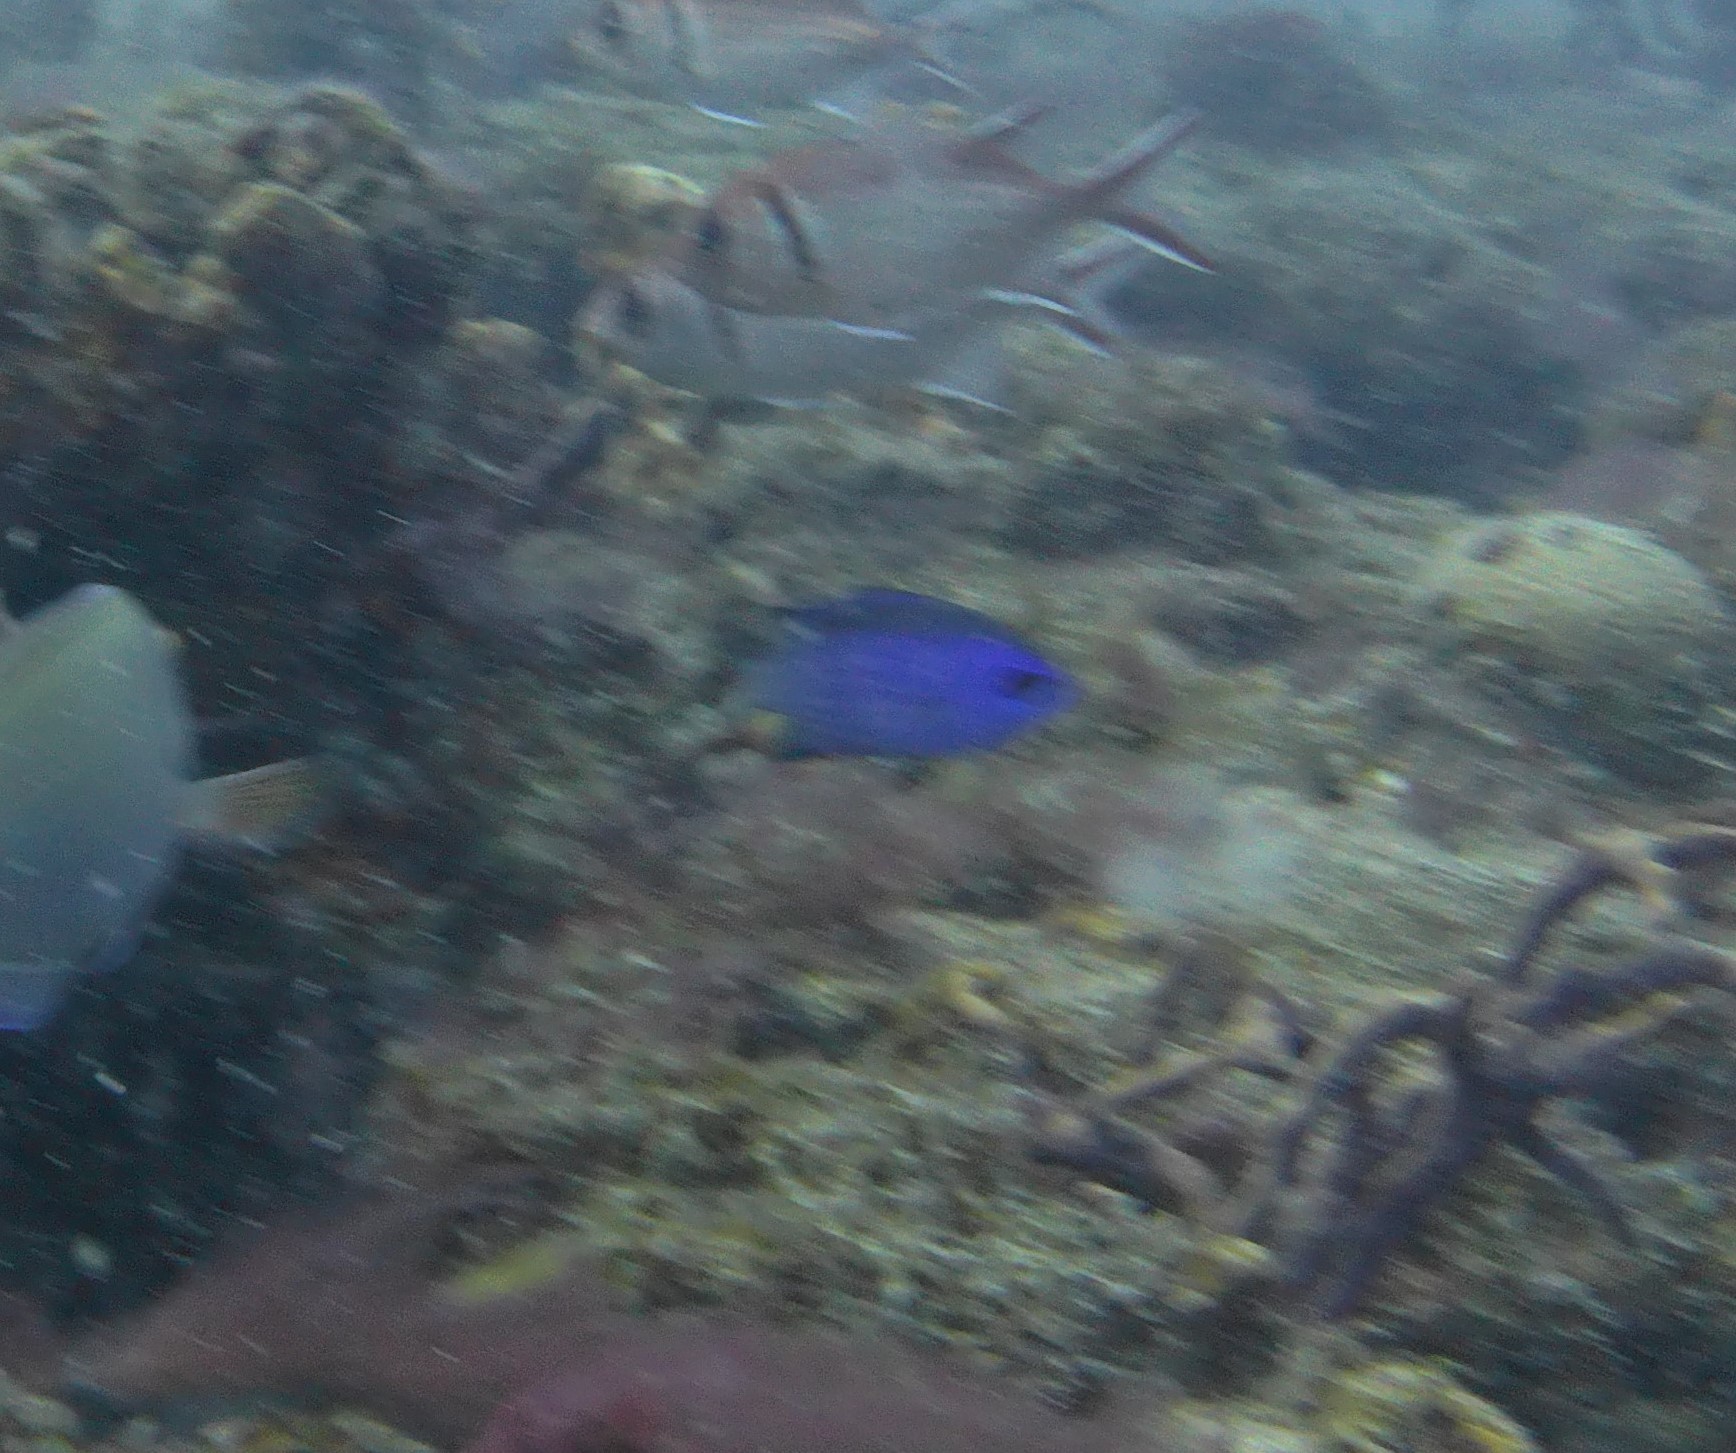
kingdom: Animalia
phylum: Chordata
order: Perciformes
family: Pomacentridae
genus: Chromis
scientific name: Chromis cyanea
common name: Blue chromis
